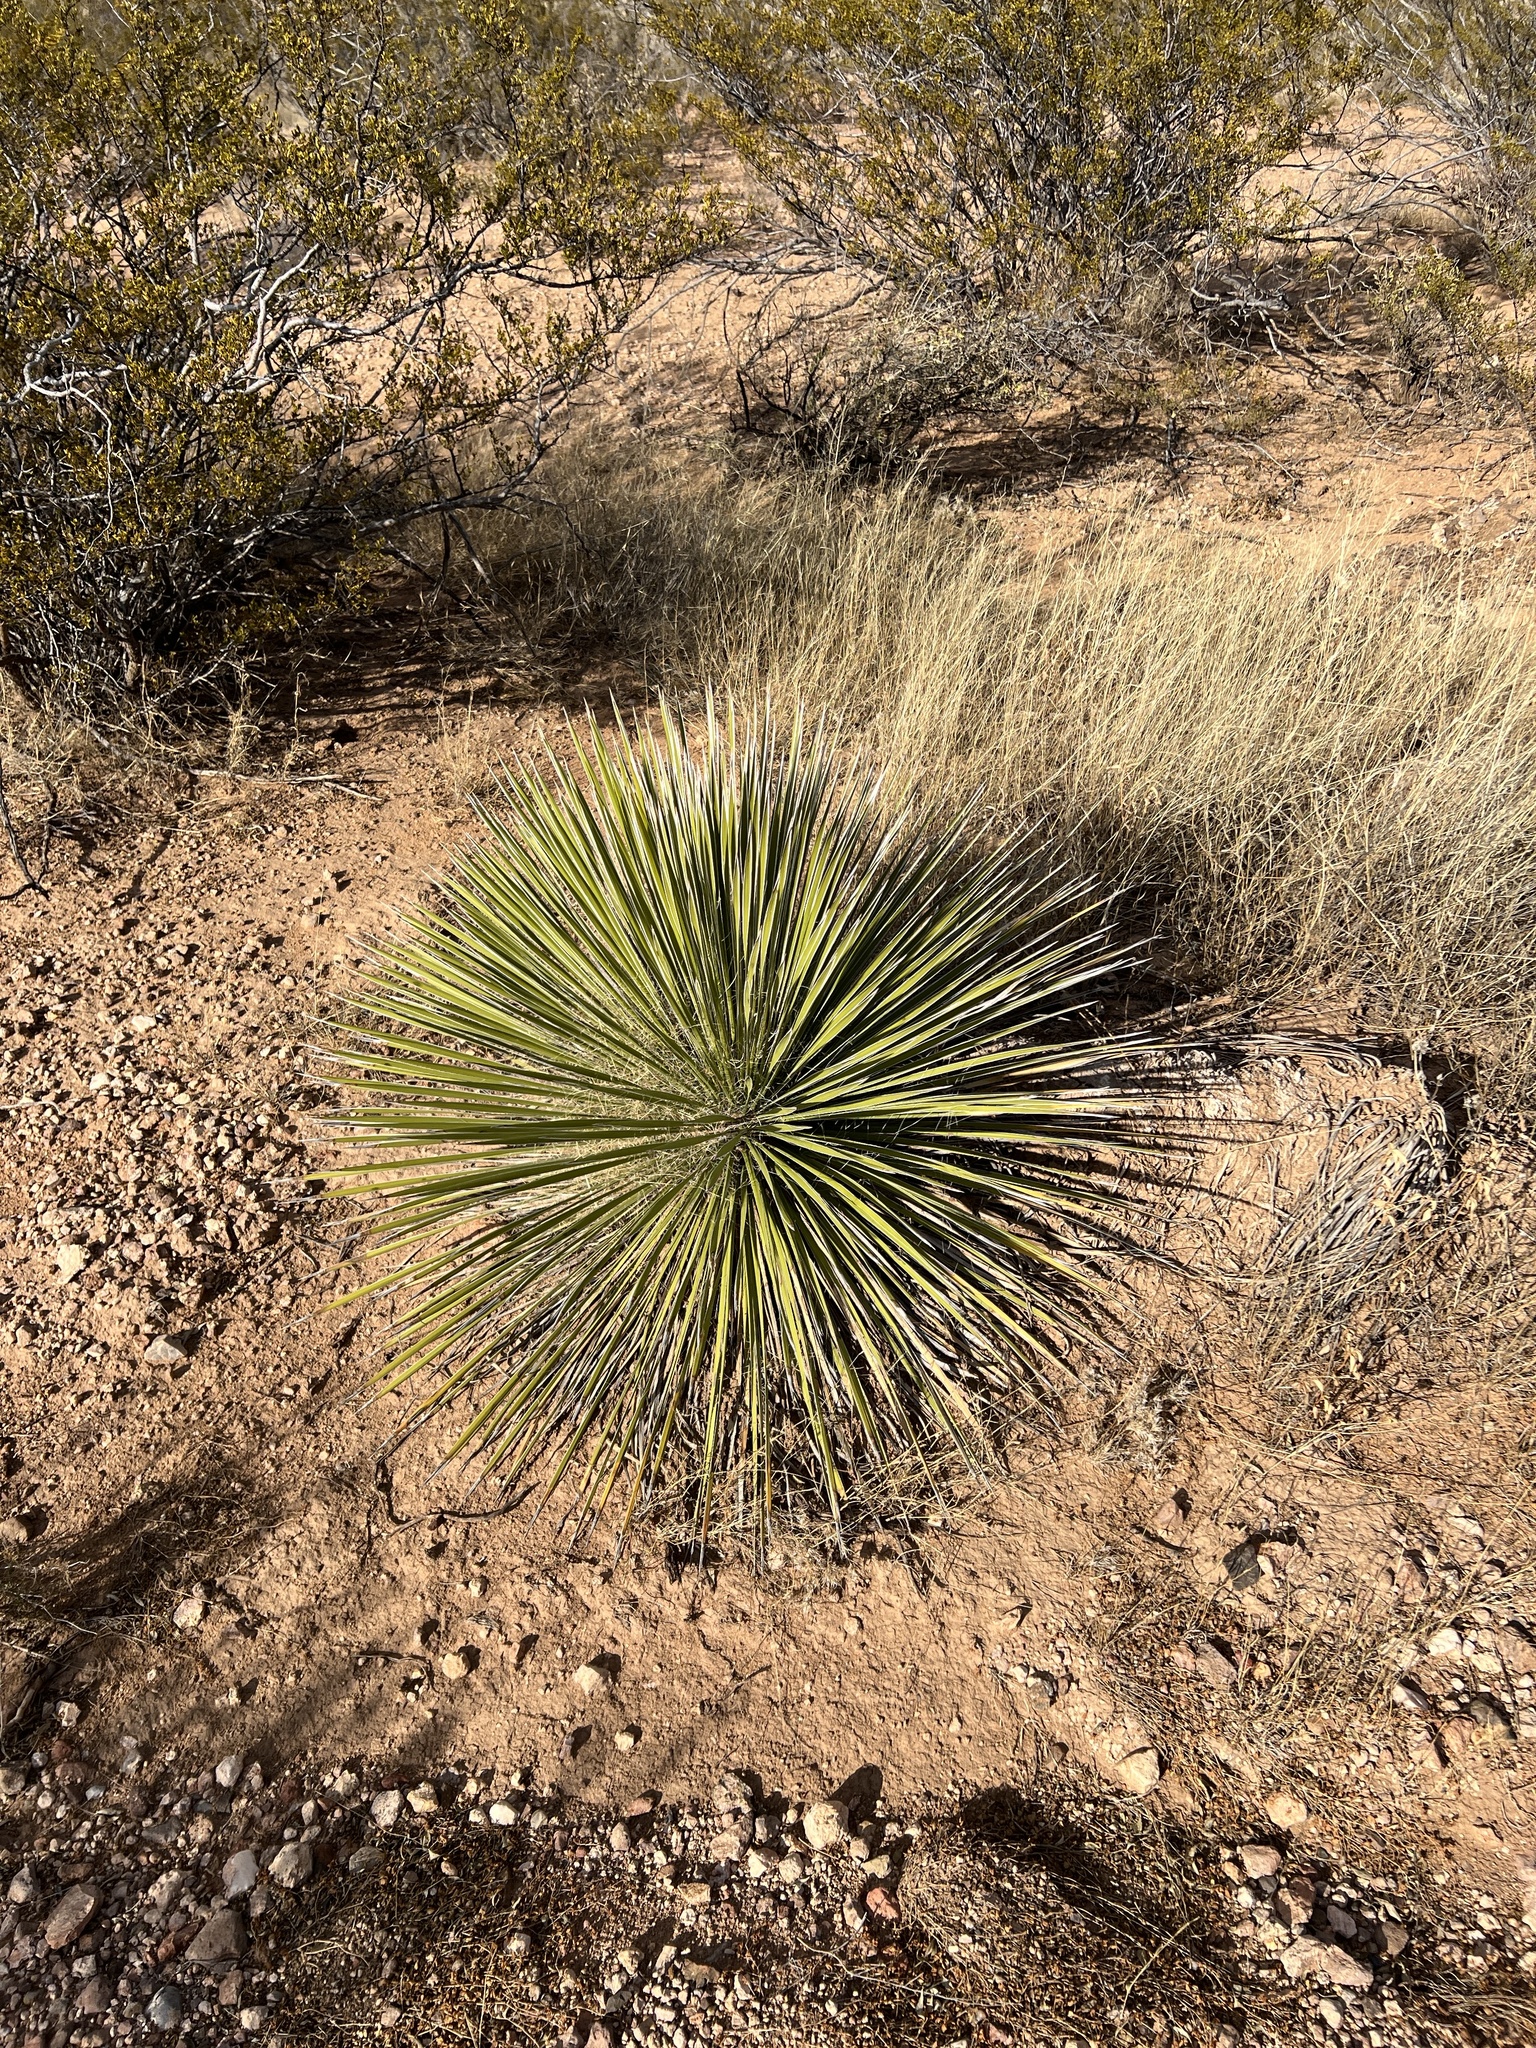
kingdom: Plantae
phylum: Tracheophyta
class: Liliopsida
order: Asparagales
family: Asparagaceae
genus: Yucca
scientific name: Yucca elata
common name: Palmella
